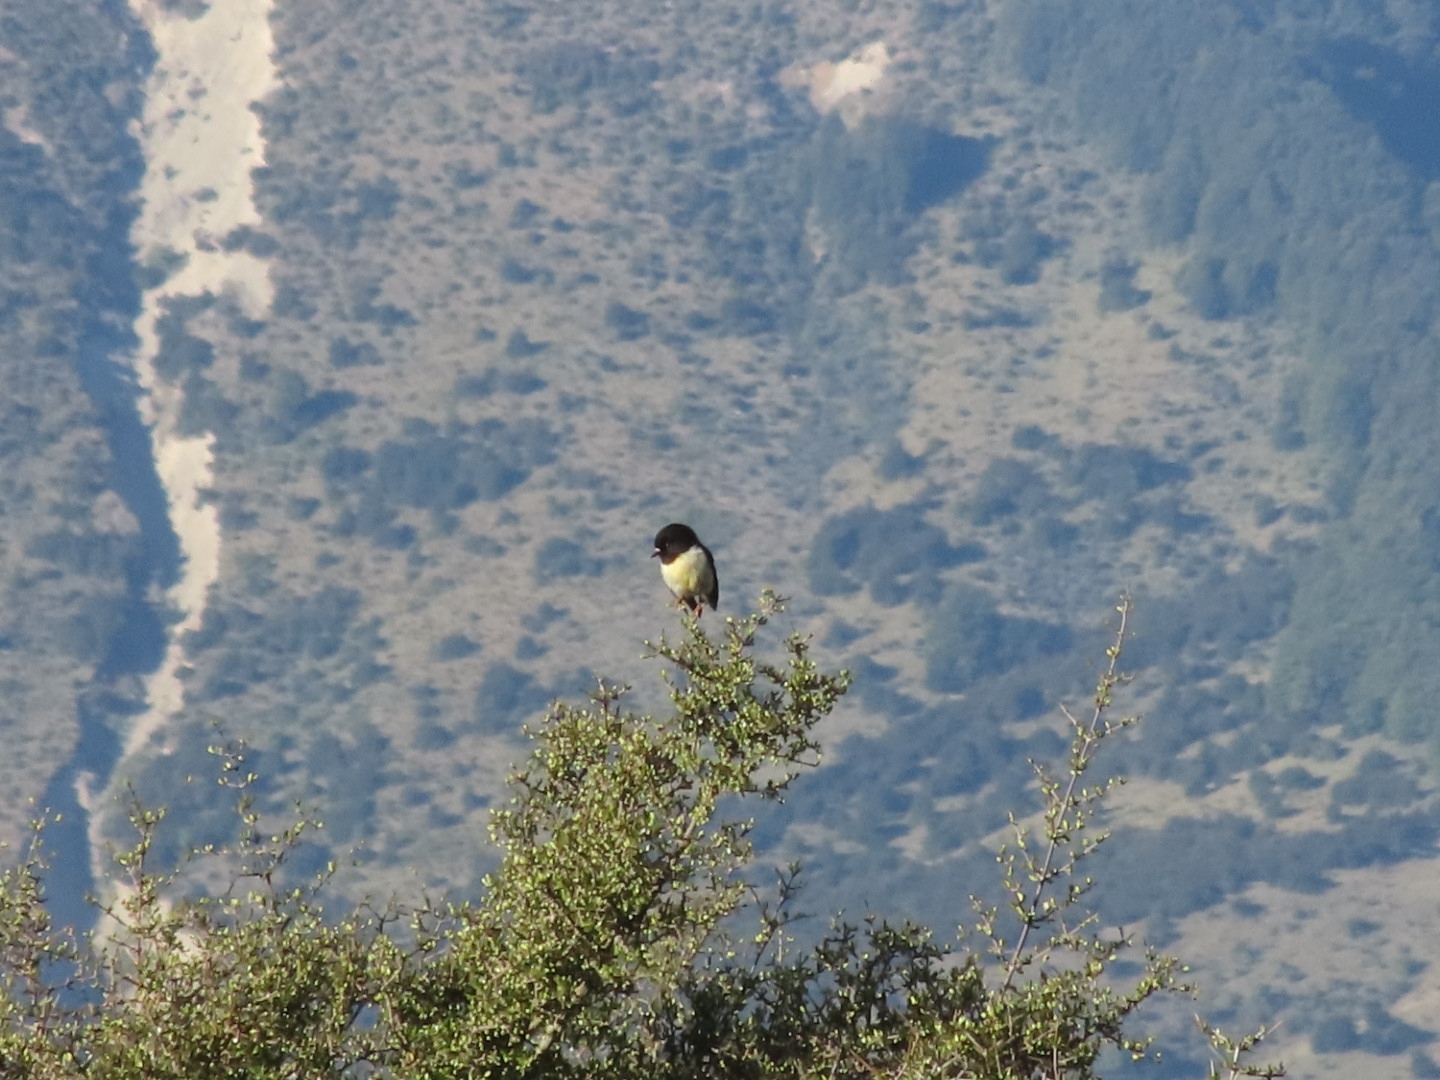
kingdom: Animalia
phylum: Chordata
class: Aves
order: Passeriformes
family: Petroicidae
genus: Petroica
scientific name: Petroica macrocephala
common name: Tomtit
